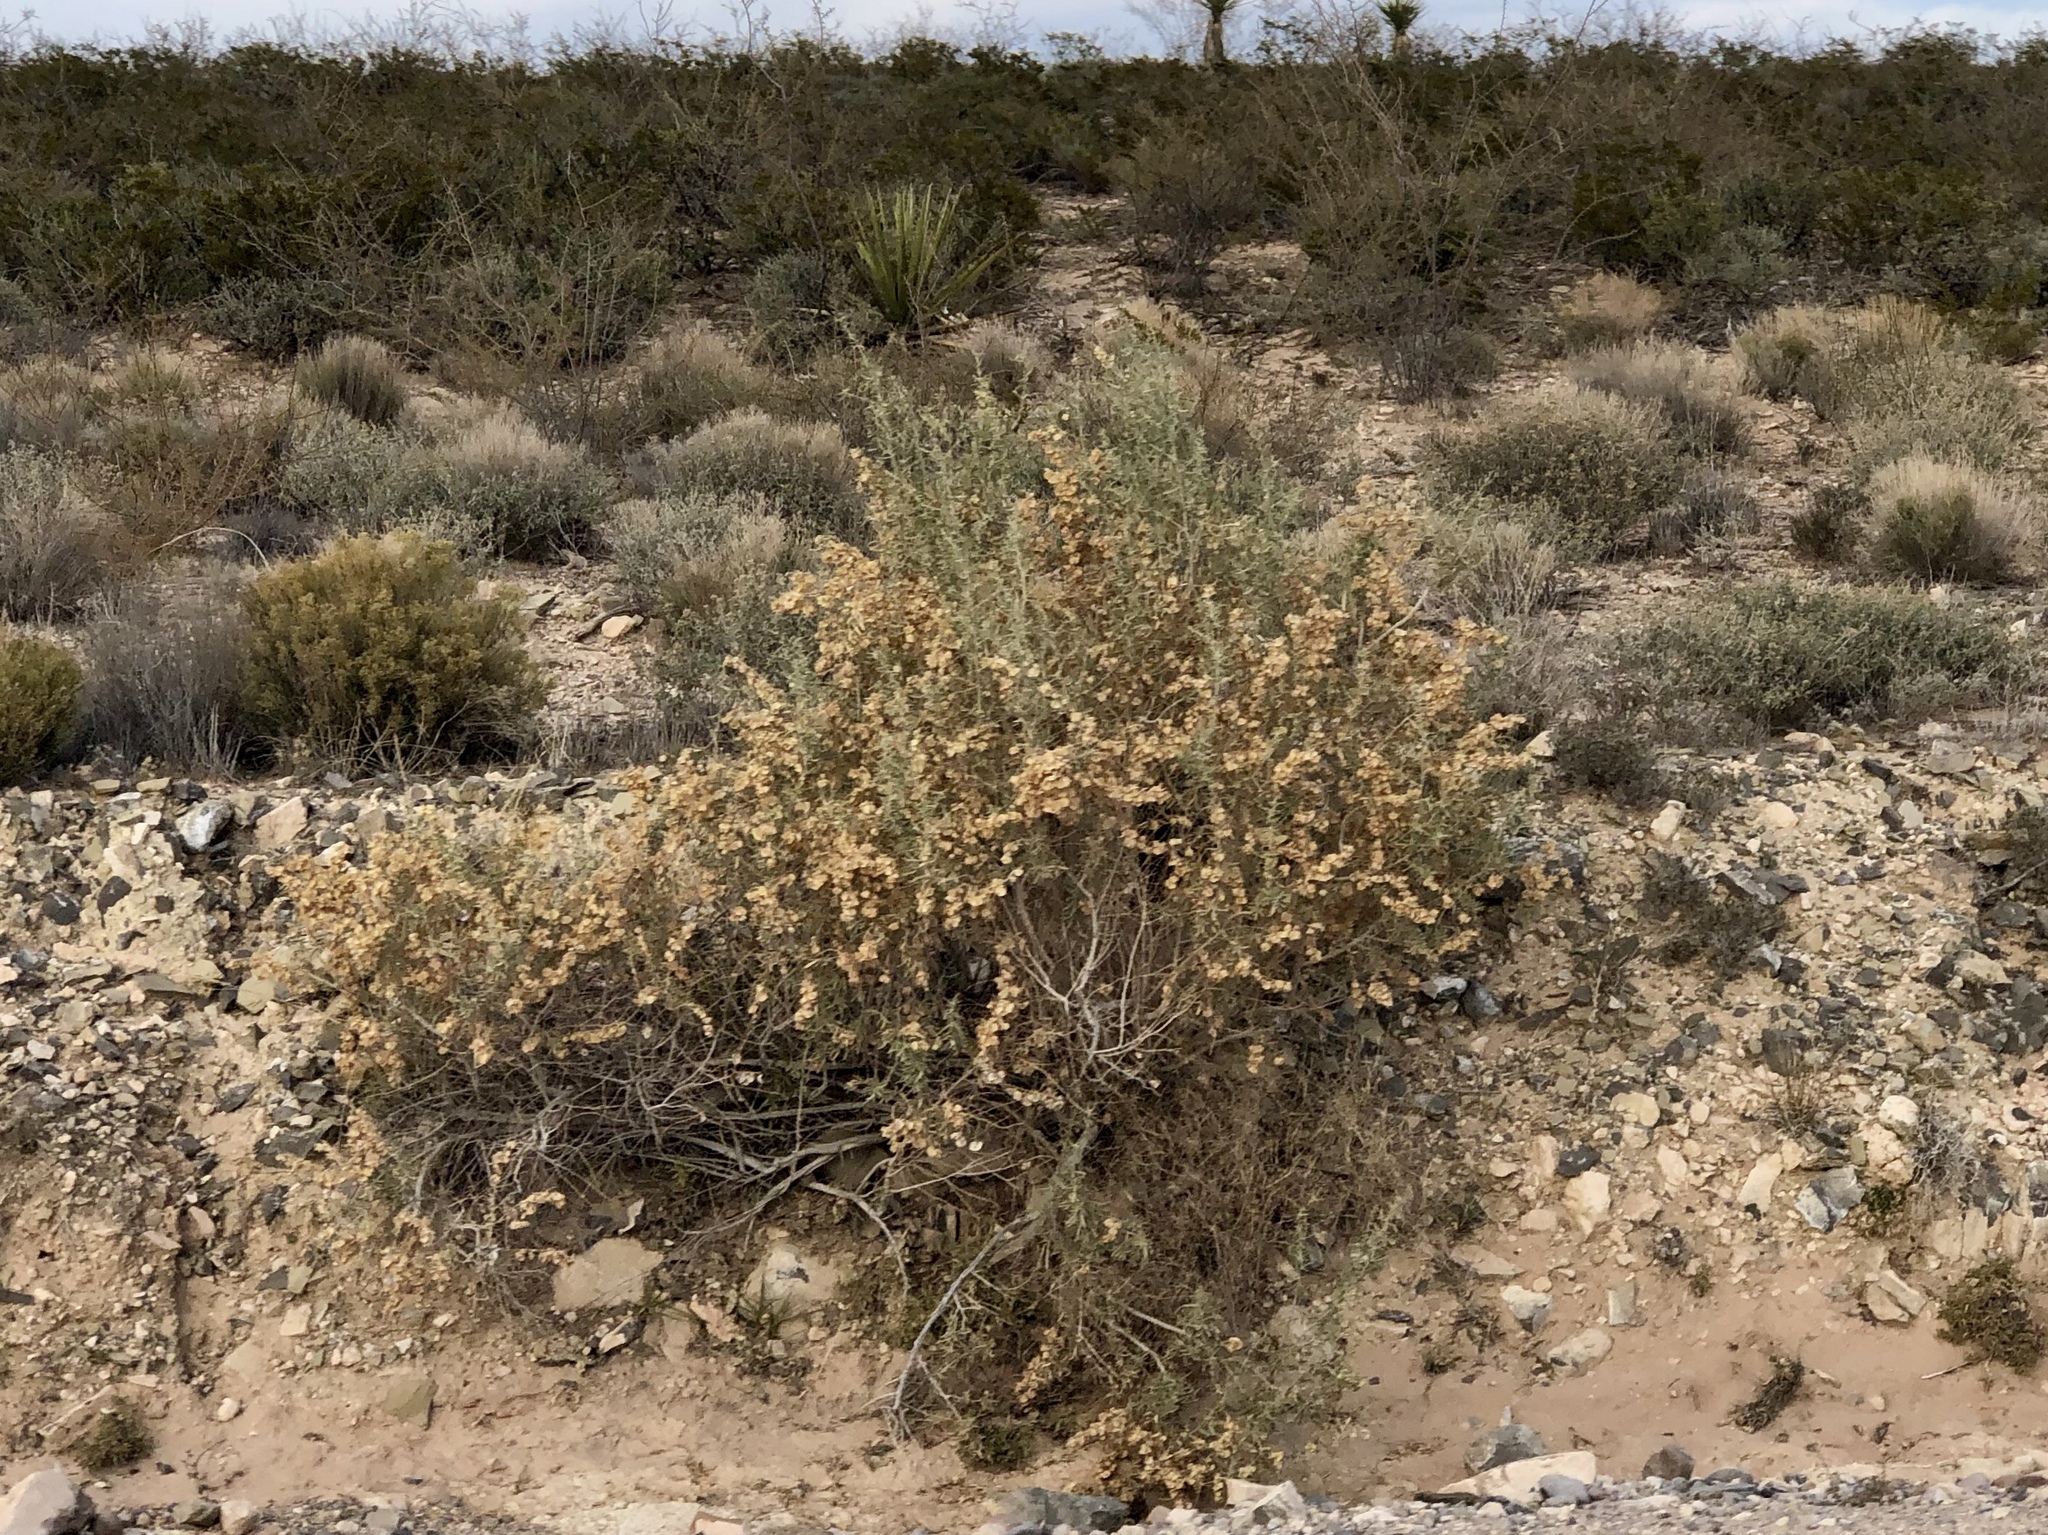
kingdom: Plantae
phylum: Tracheophyta
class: Magnoliopsida
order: Caryophyllales
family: Amaranthaceae
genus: Atriplex
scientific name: Atriplex canescens
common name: Four-wing saltbush
